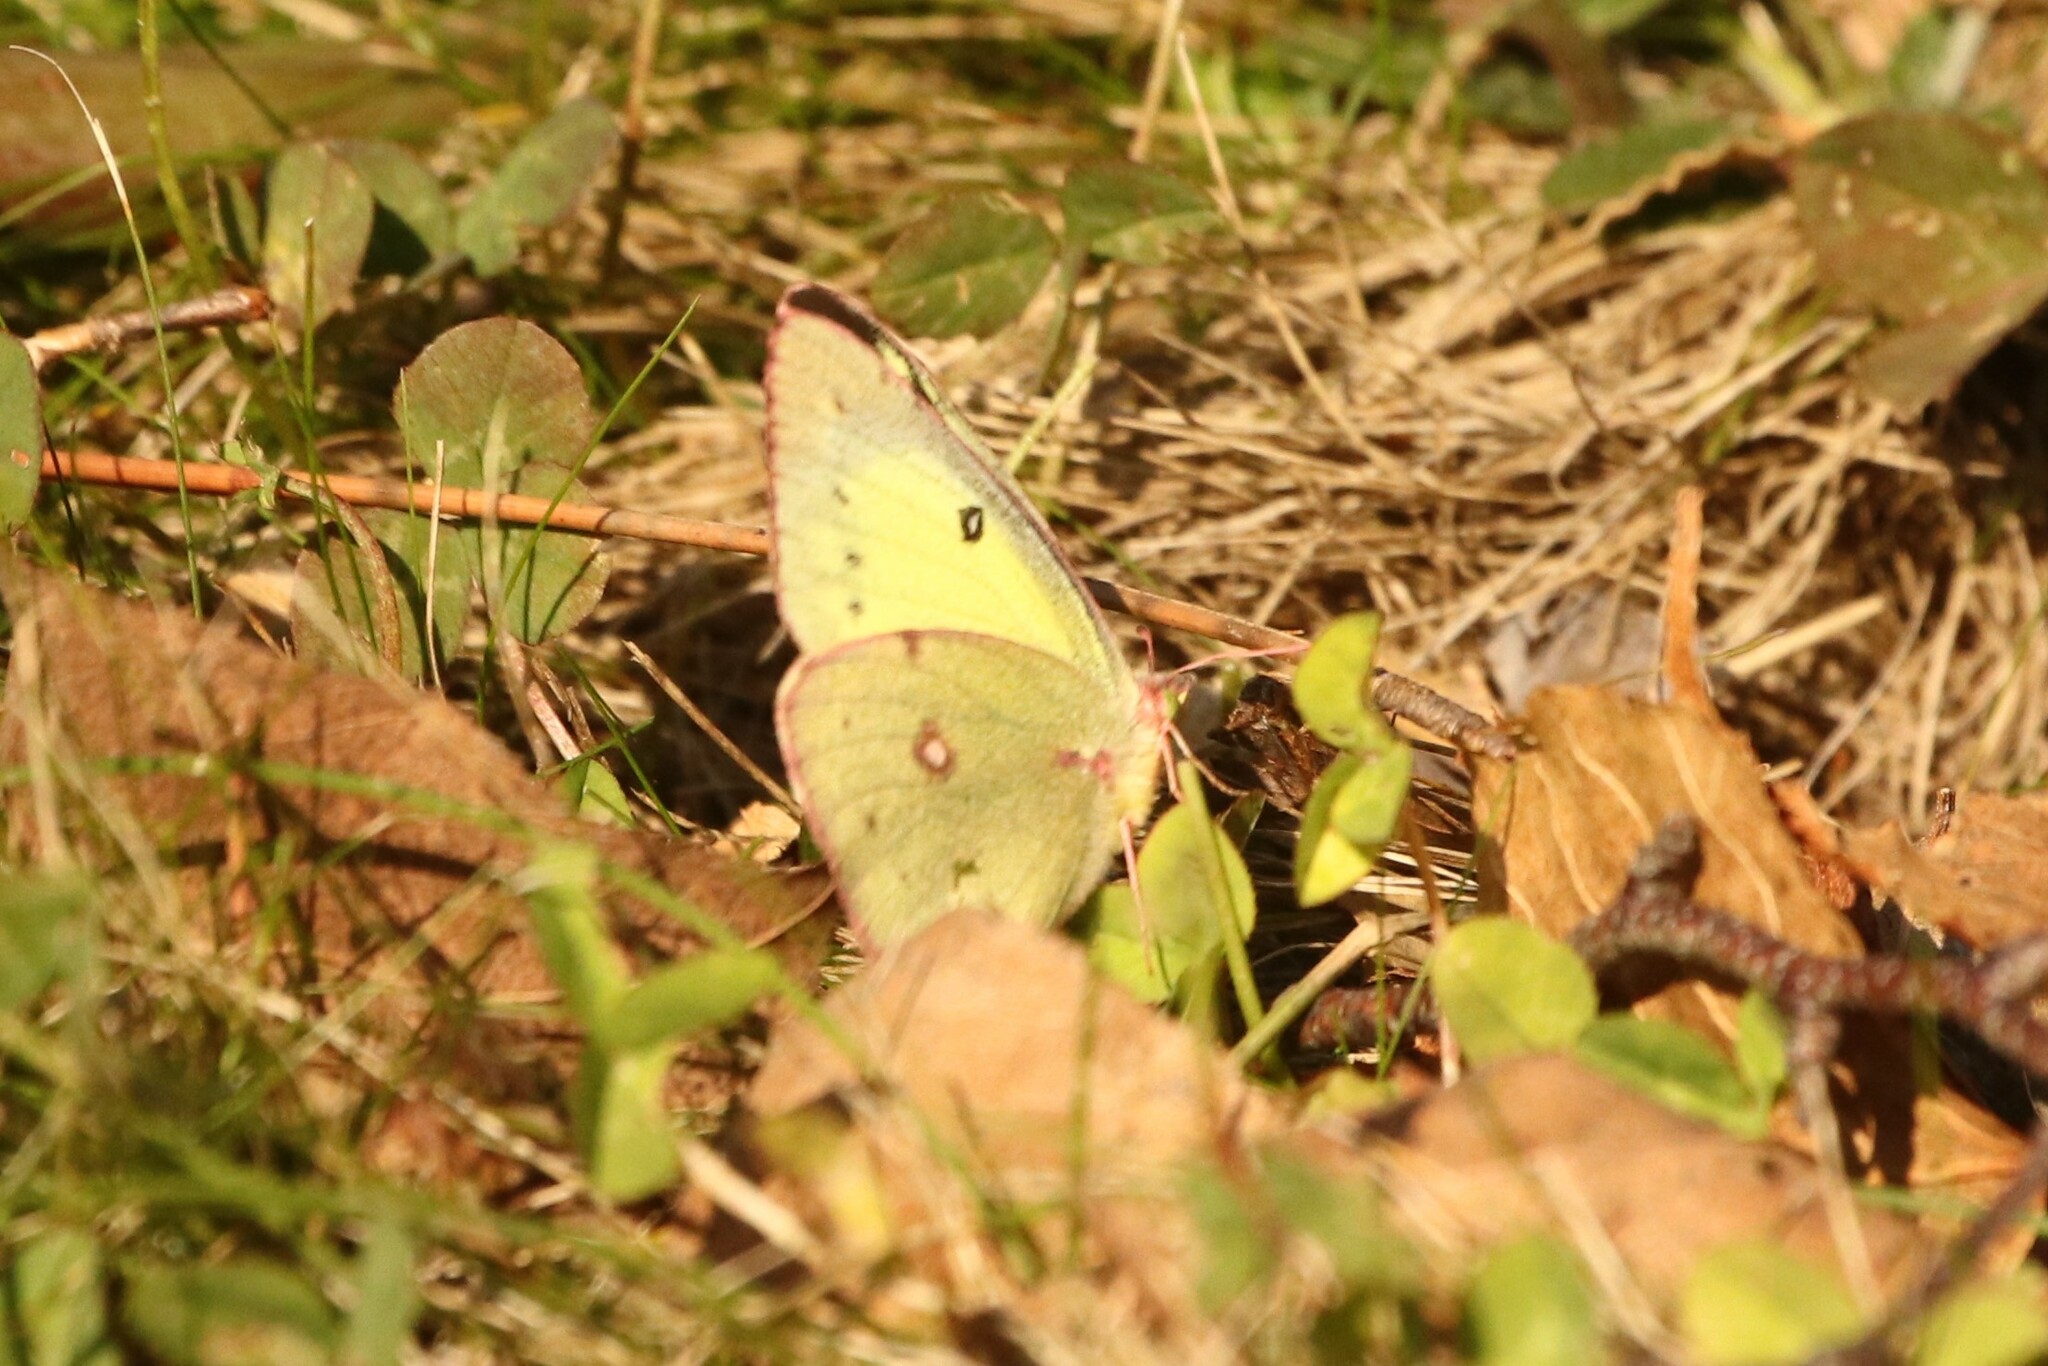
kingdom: Animalia
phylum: Arthropoda
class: Insecta
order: Lepidoptera
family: Pieridae
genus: Colias
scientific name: Colias philodice
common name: Clouded sulphur
